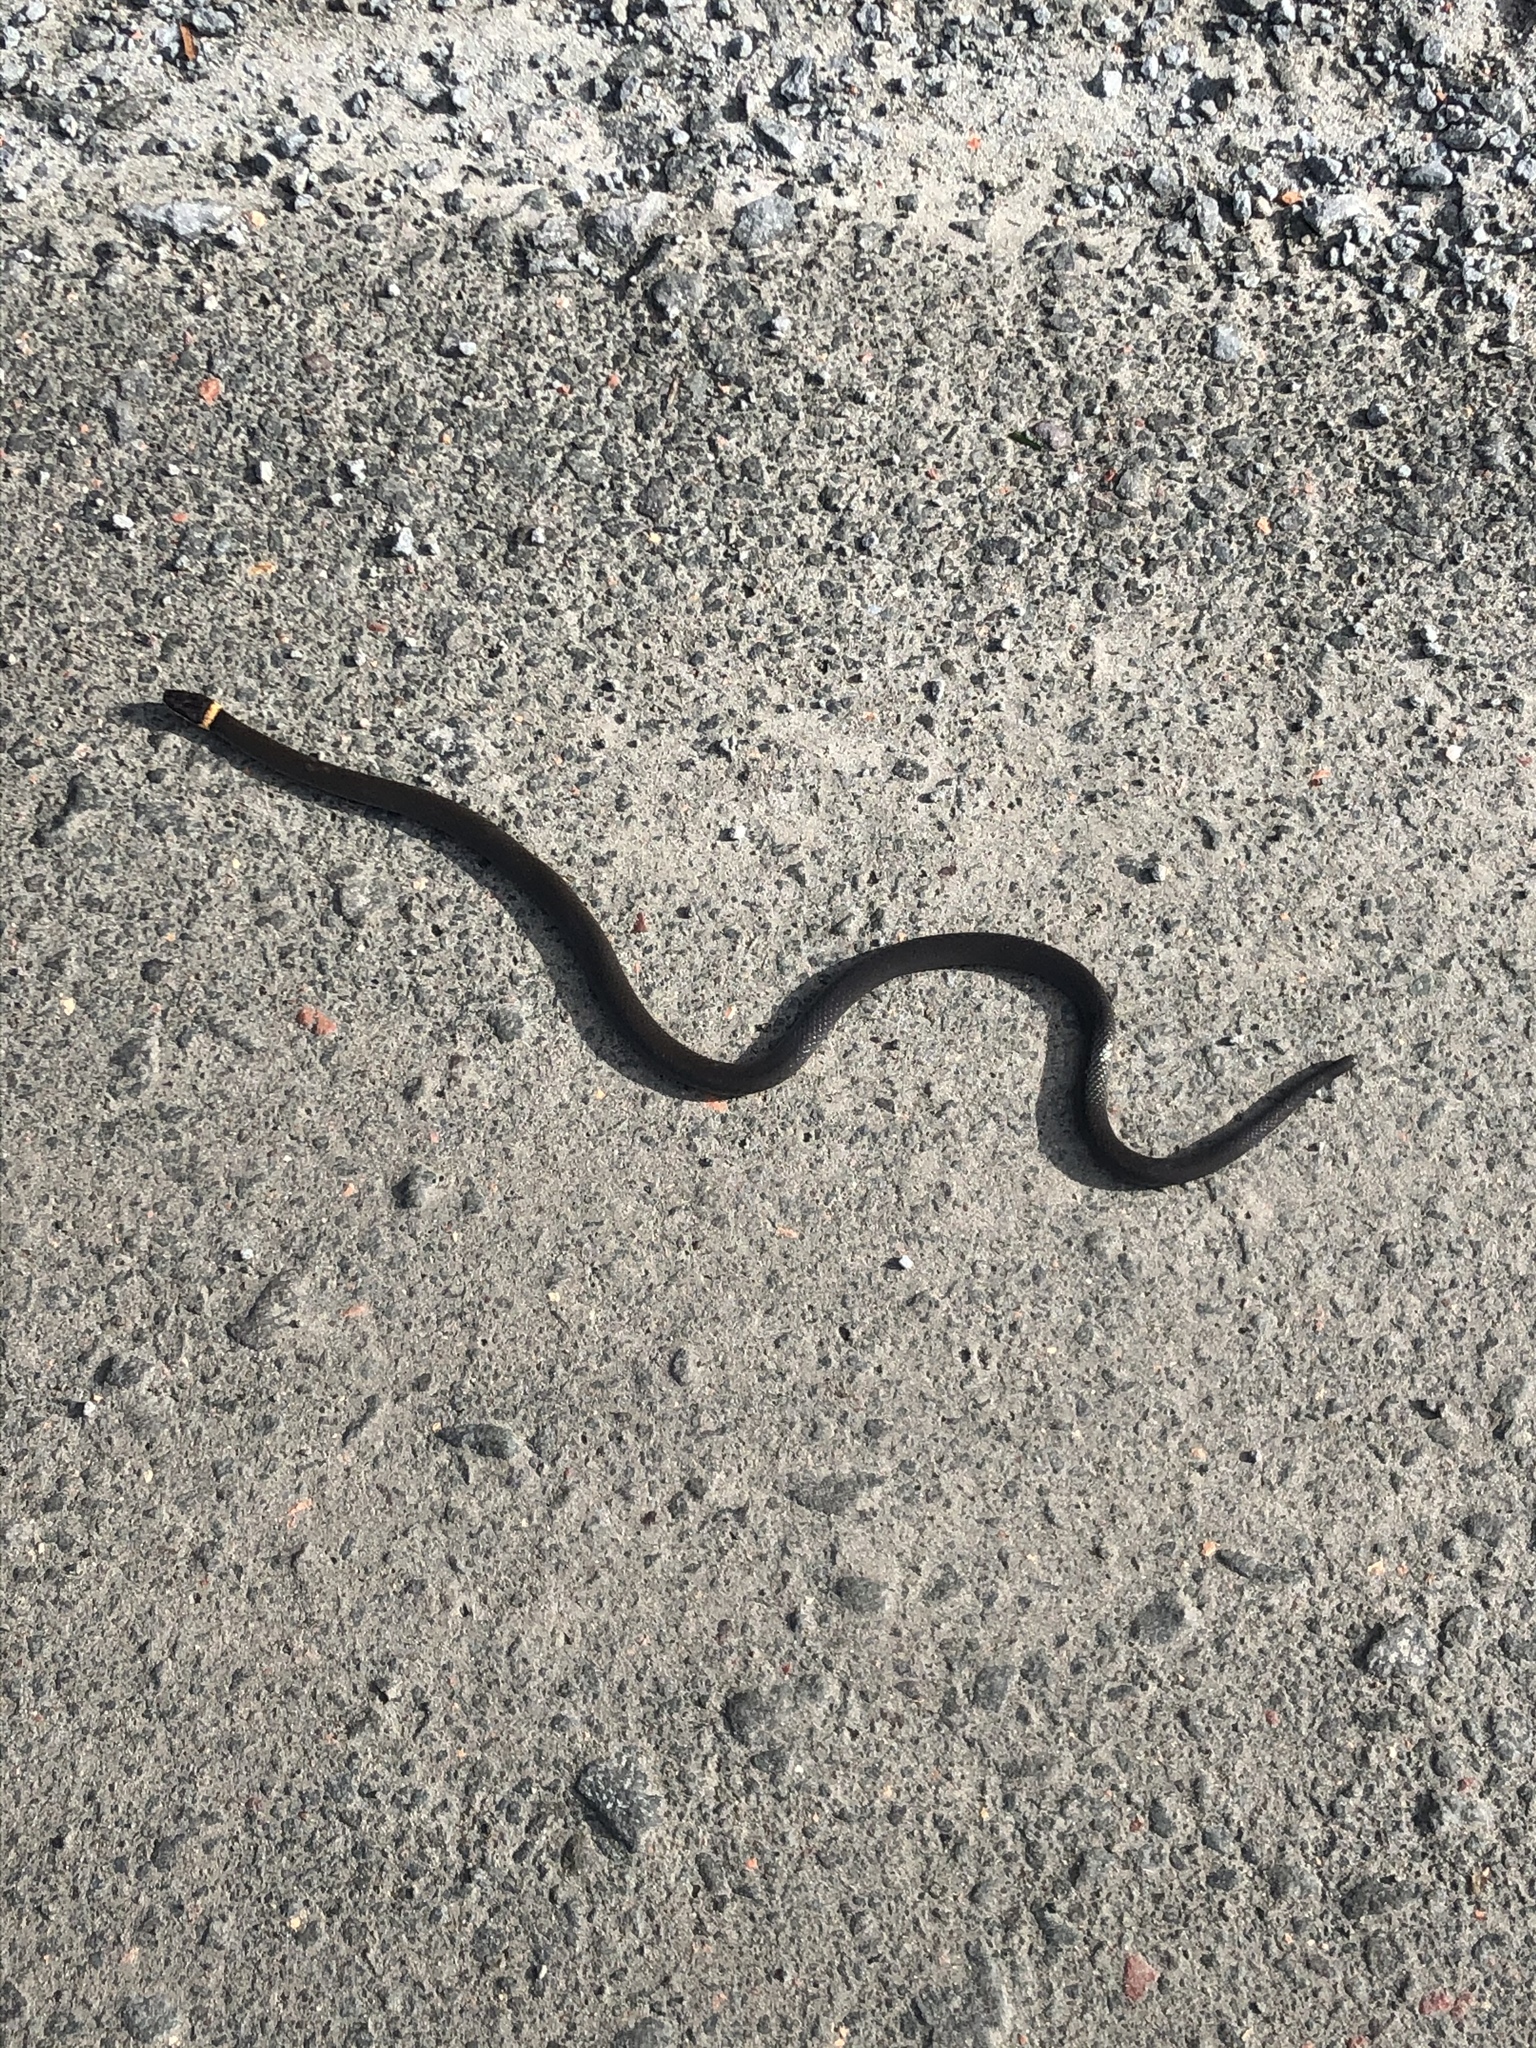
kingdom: Animalia
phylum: Chordata
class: Squamata
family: Colubridae
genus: Diadophis
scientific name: Diadophis punctatus
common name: Ringneck snake
